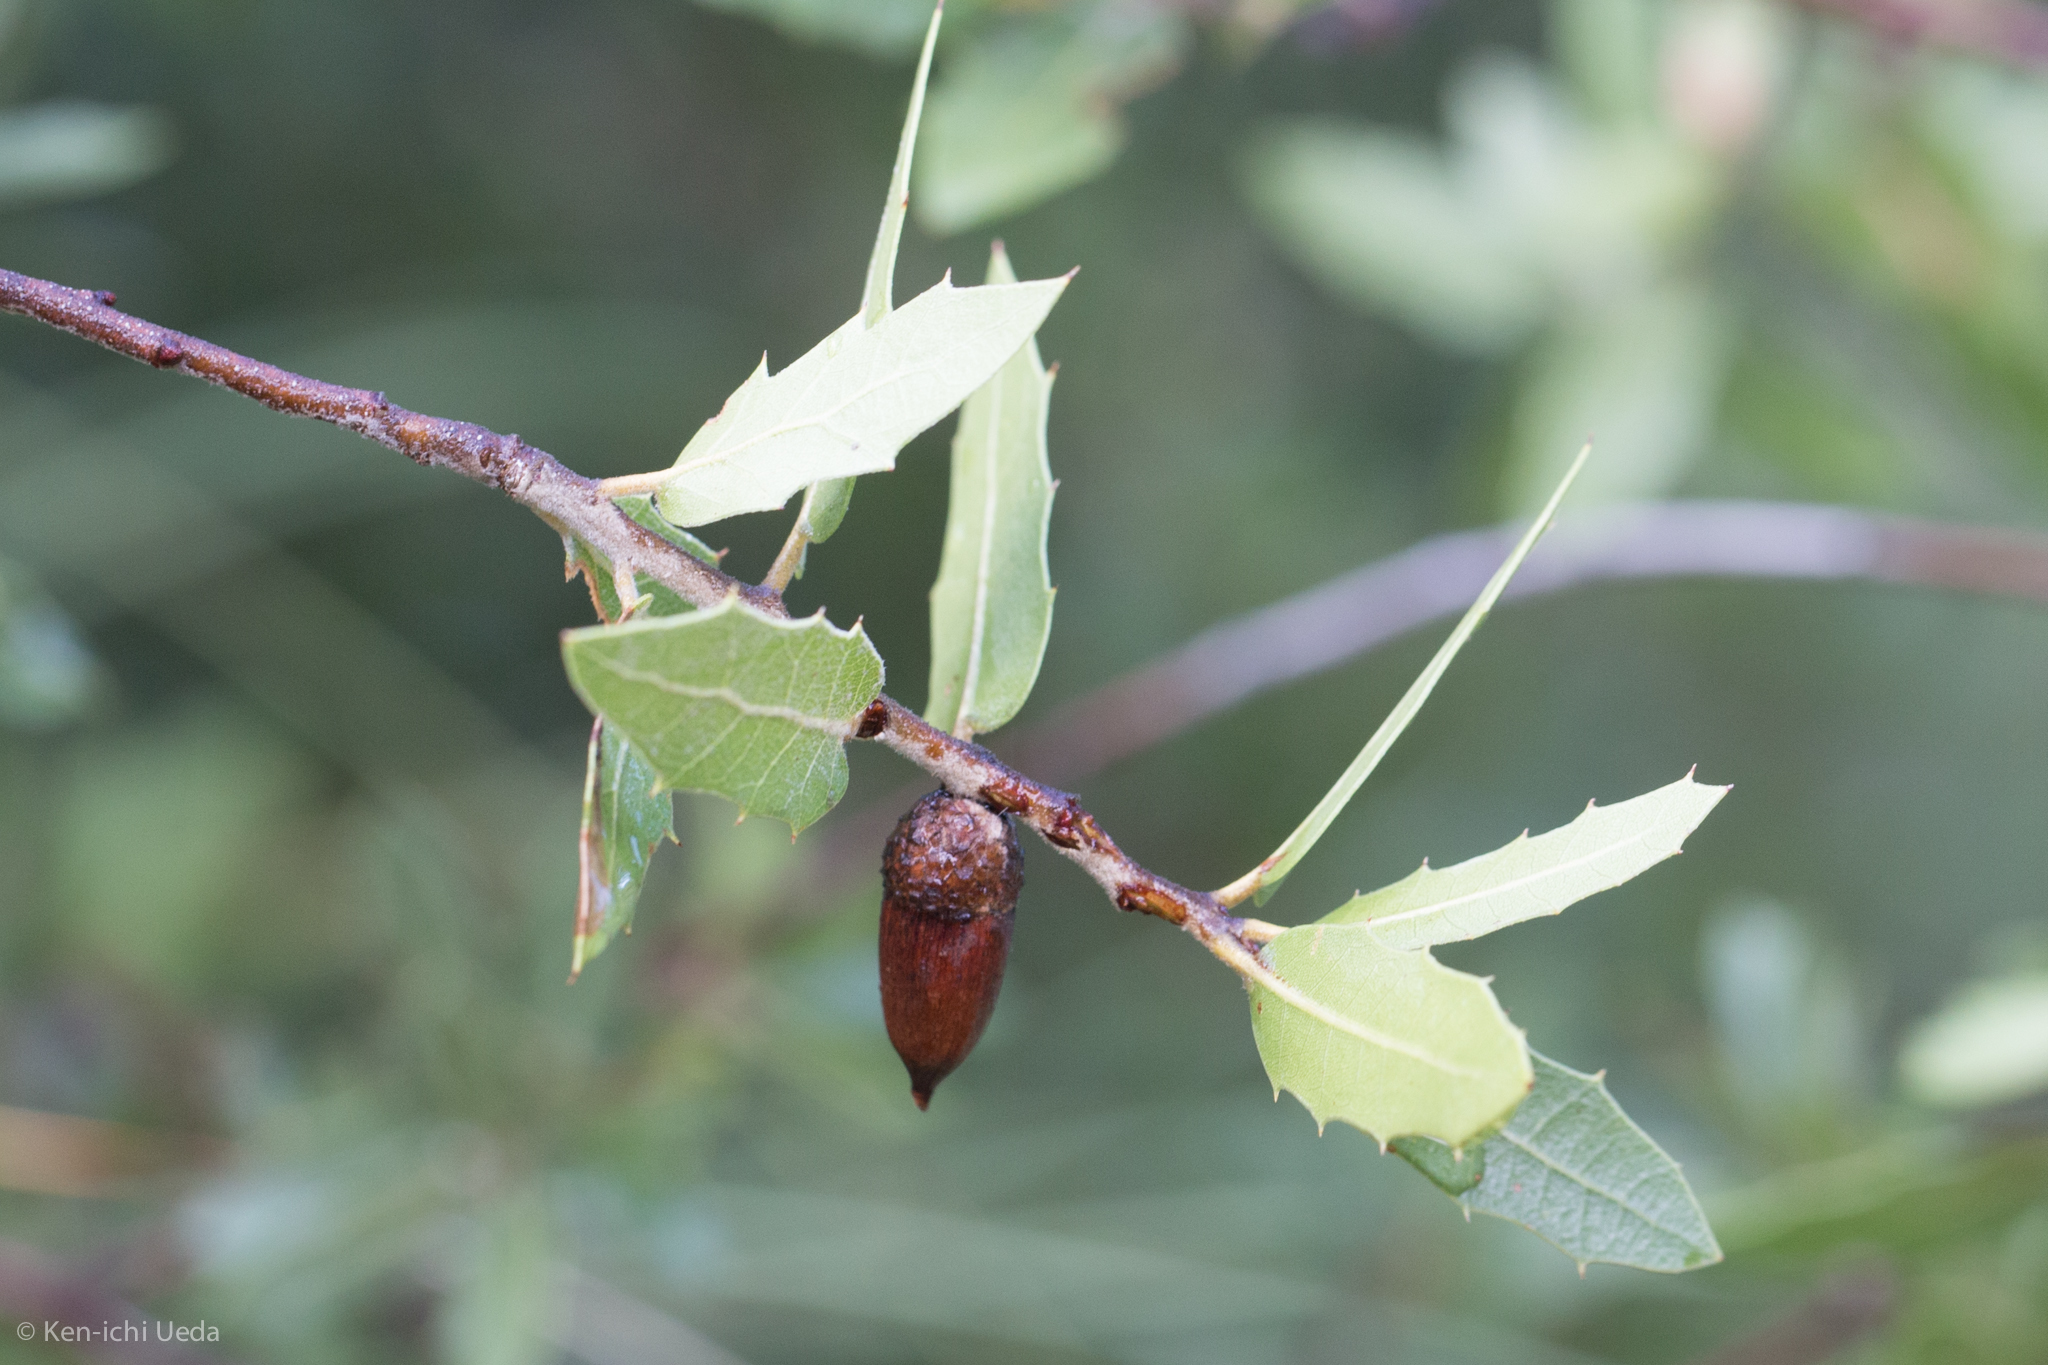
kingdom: Plantae
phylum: Tracheophyta
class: Magnoliopsida
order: Fagales
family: Fagaceae
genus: Quercus
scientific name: Quercus emoryi
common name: Emory oak
